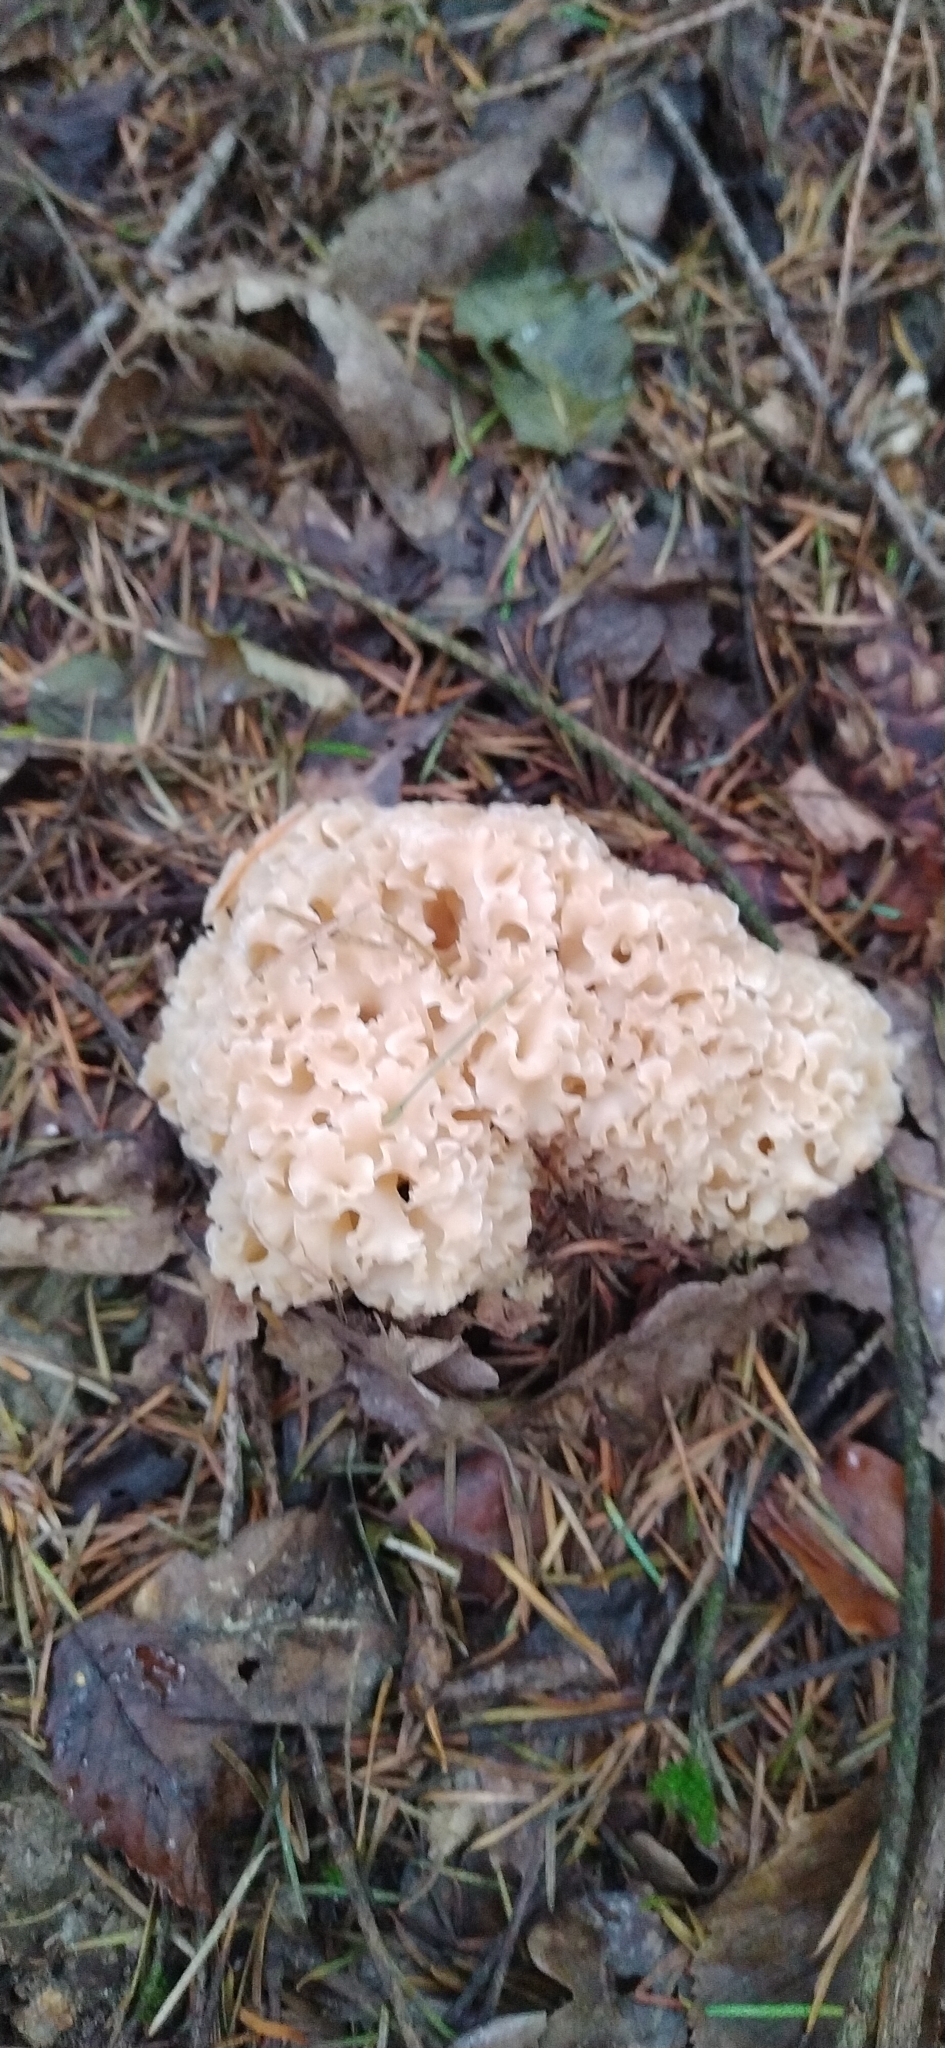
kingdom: Fungi
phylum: Basidiomycota
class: Agaricomycetes
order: Polyporales
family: Sparassidaceae
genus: Sparassis
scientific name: Sparassis crispa
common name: Brain fungus
